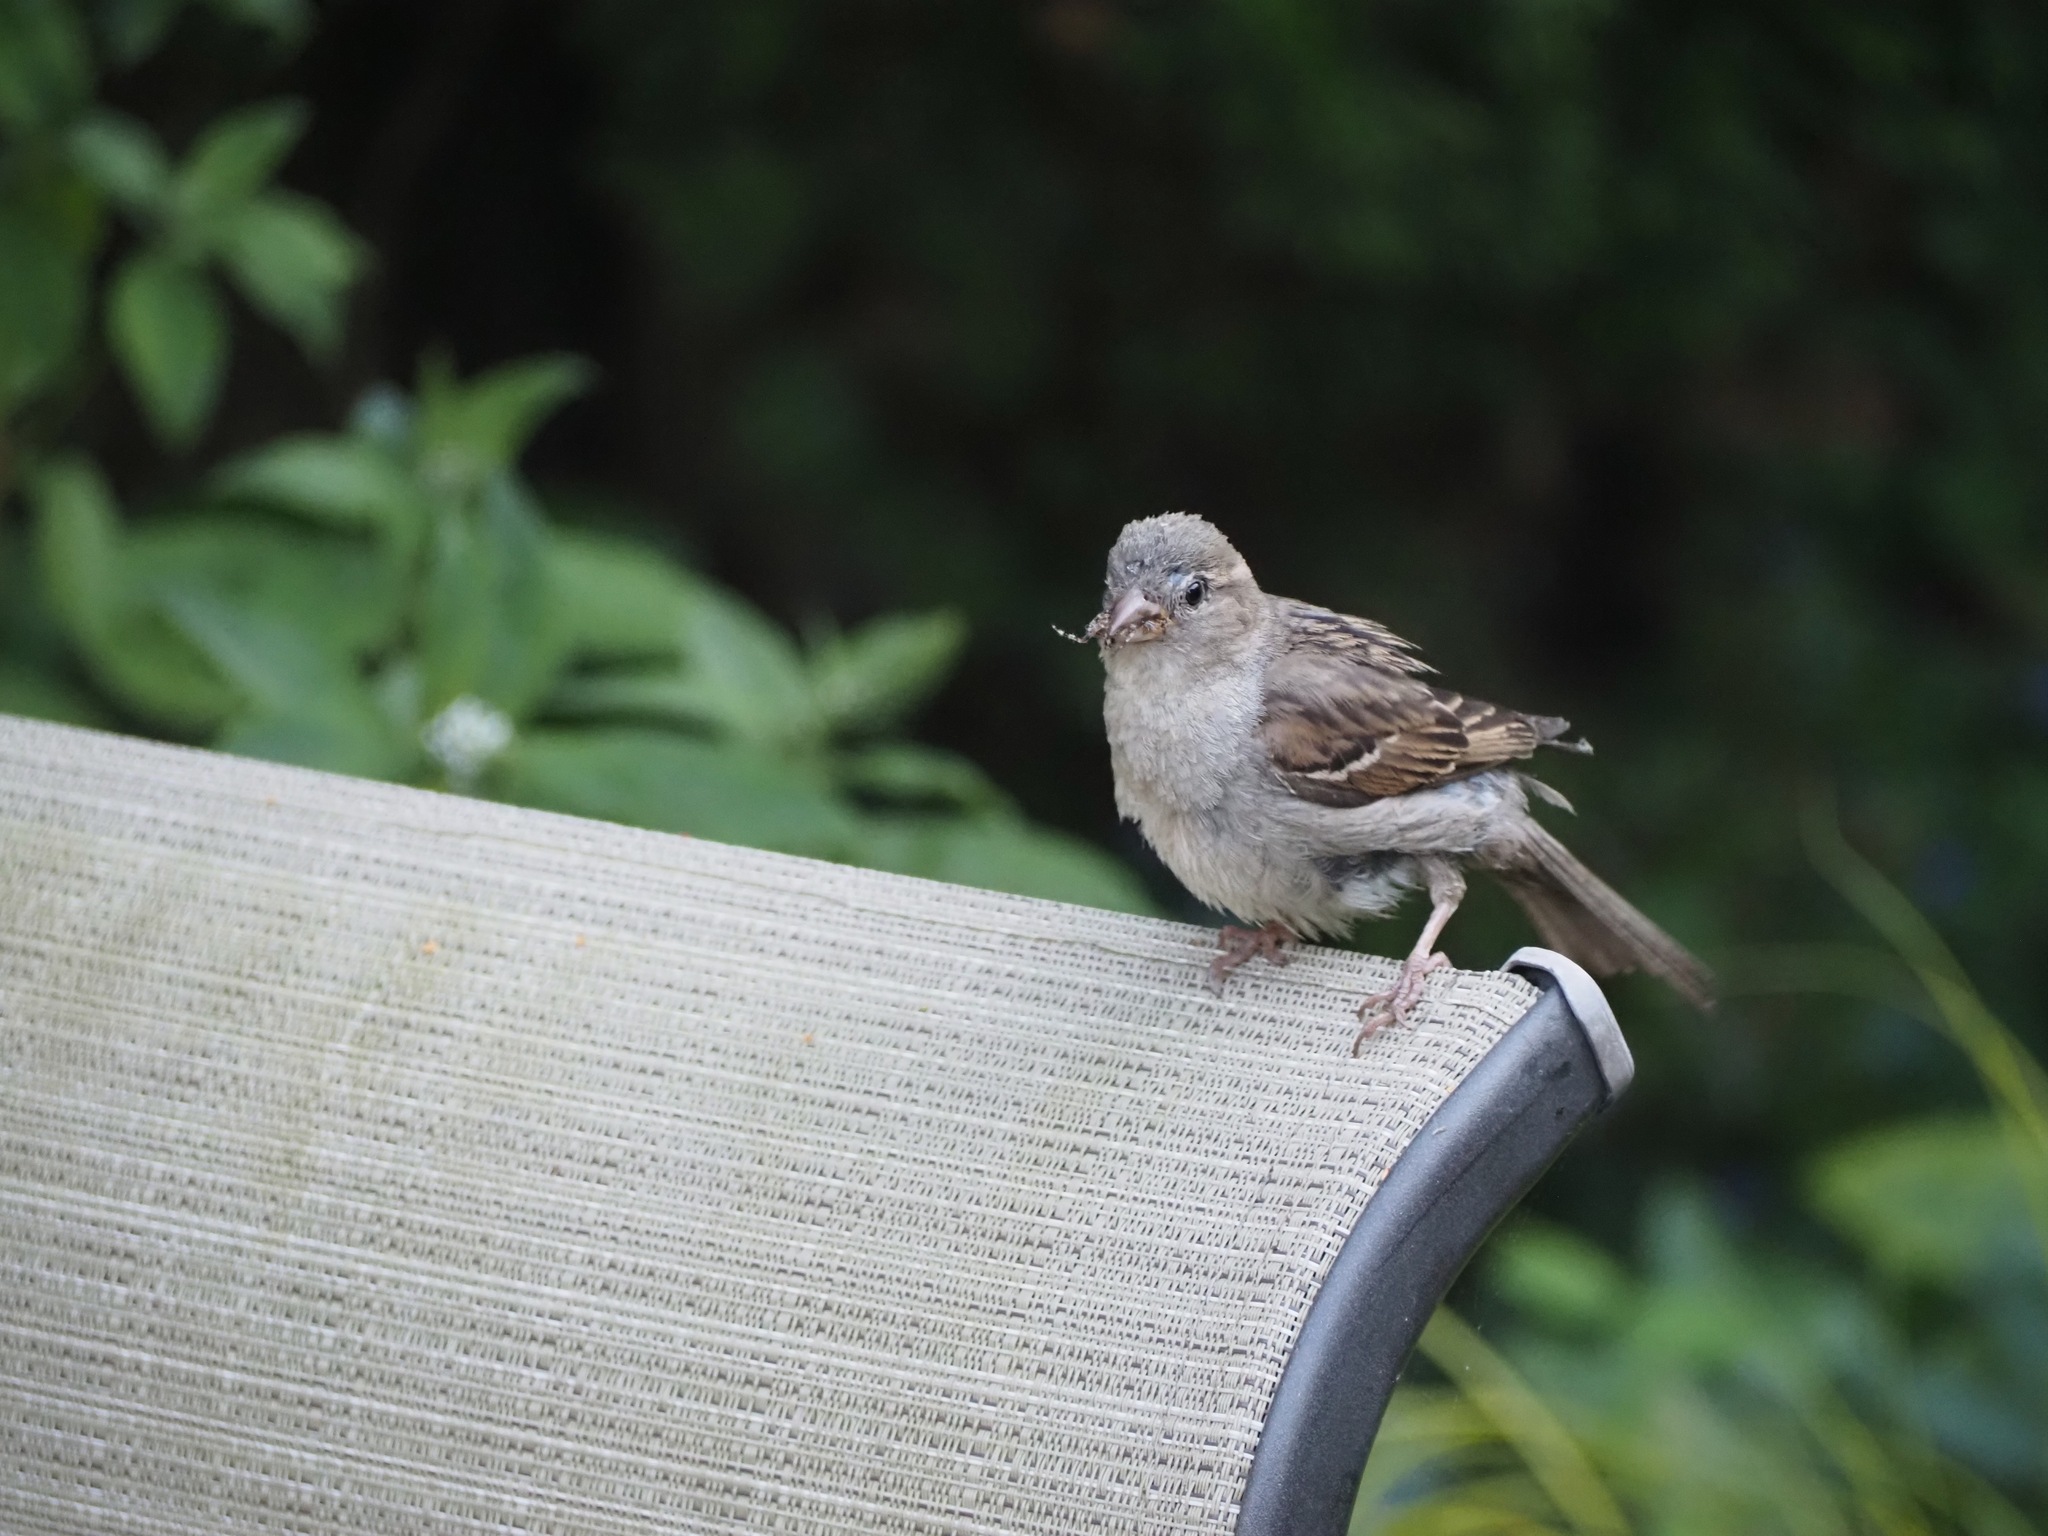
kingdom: Animalia
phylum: Chordata
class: Aves
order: Passeriformes
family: Passeridae
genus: Passer
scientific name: Passer domesticus
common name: House sparrow
